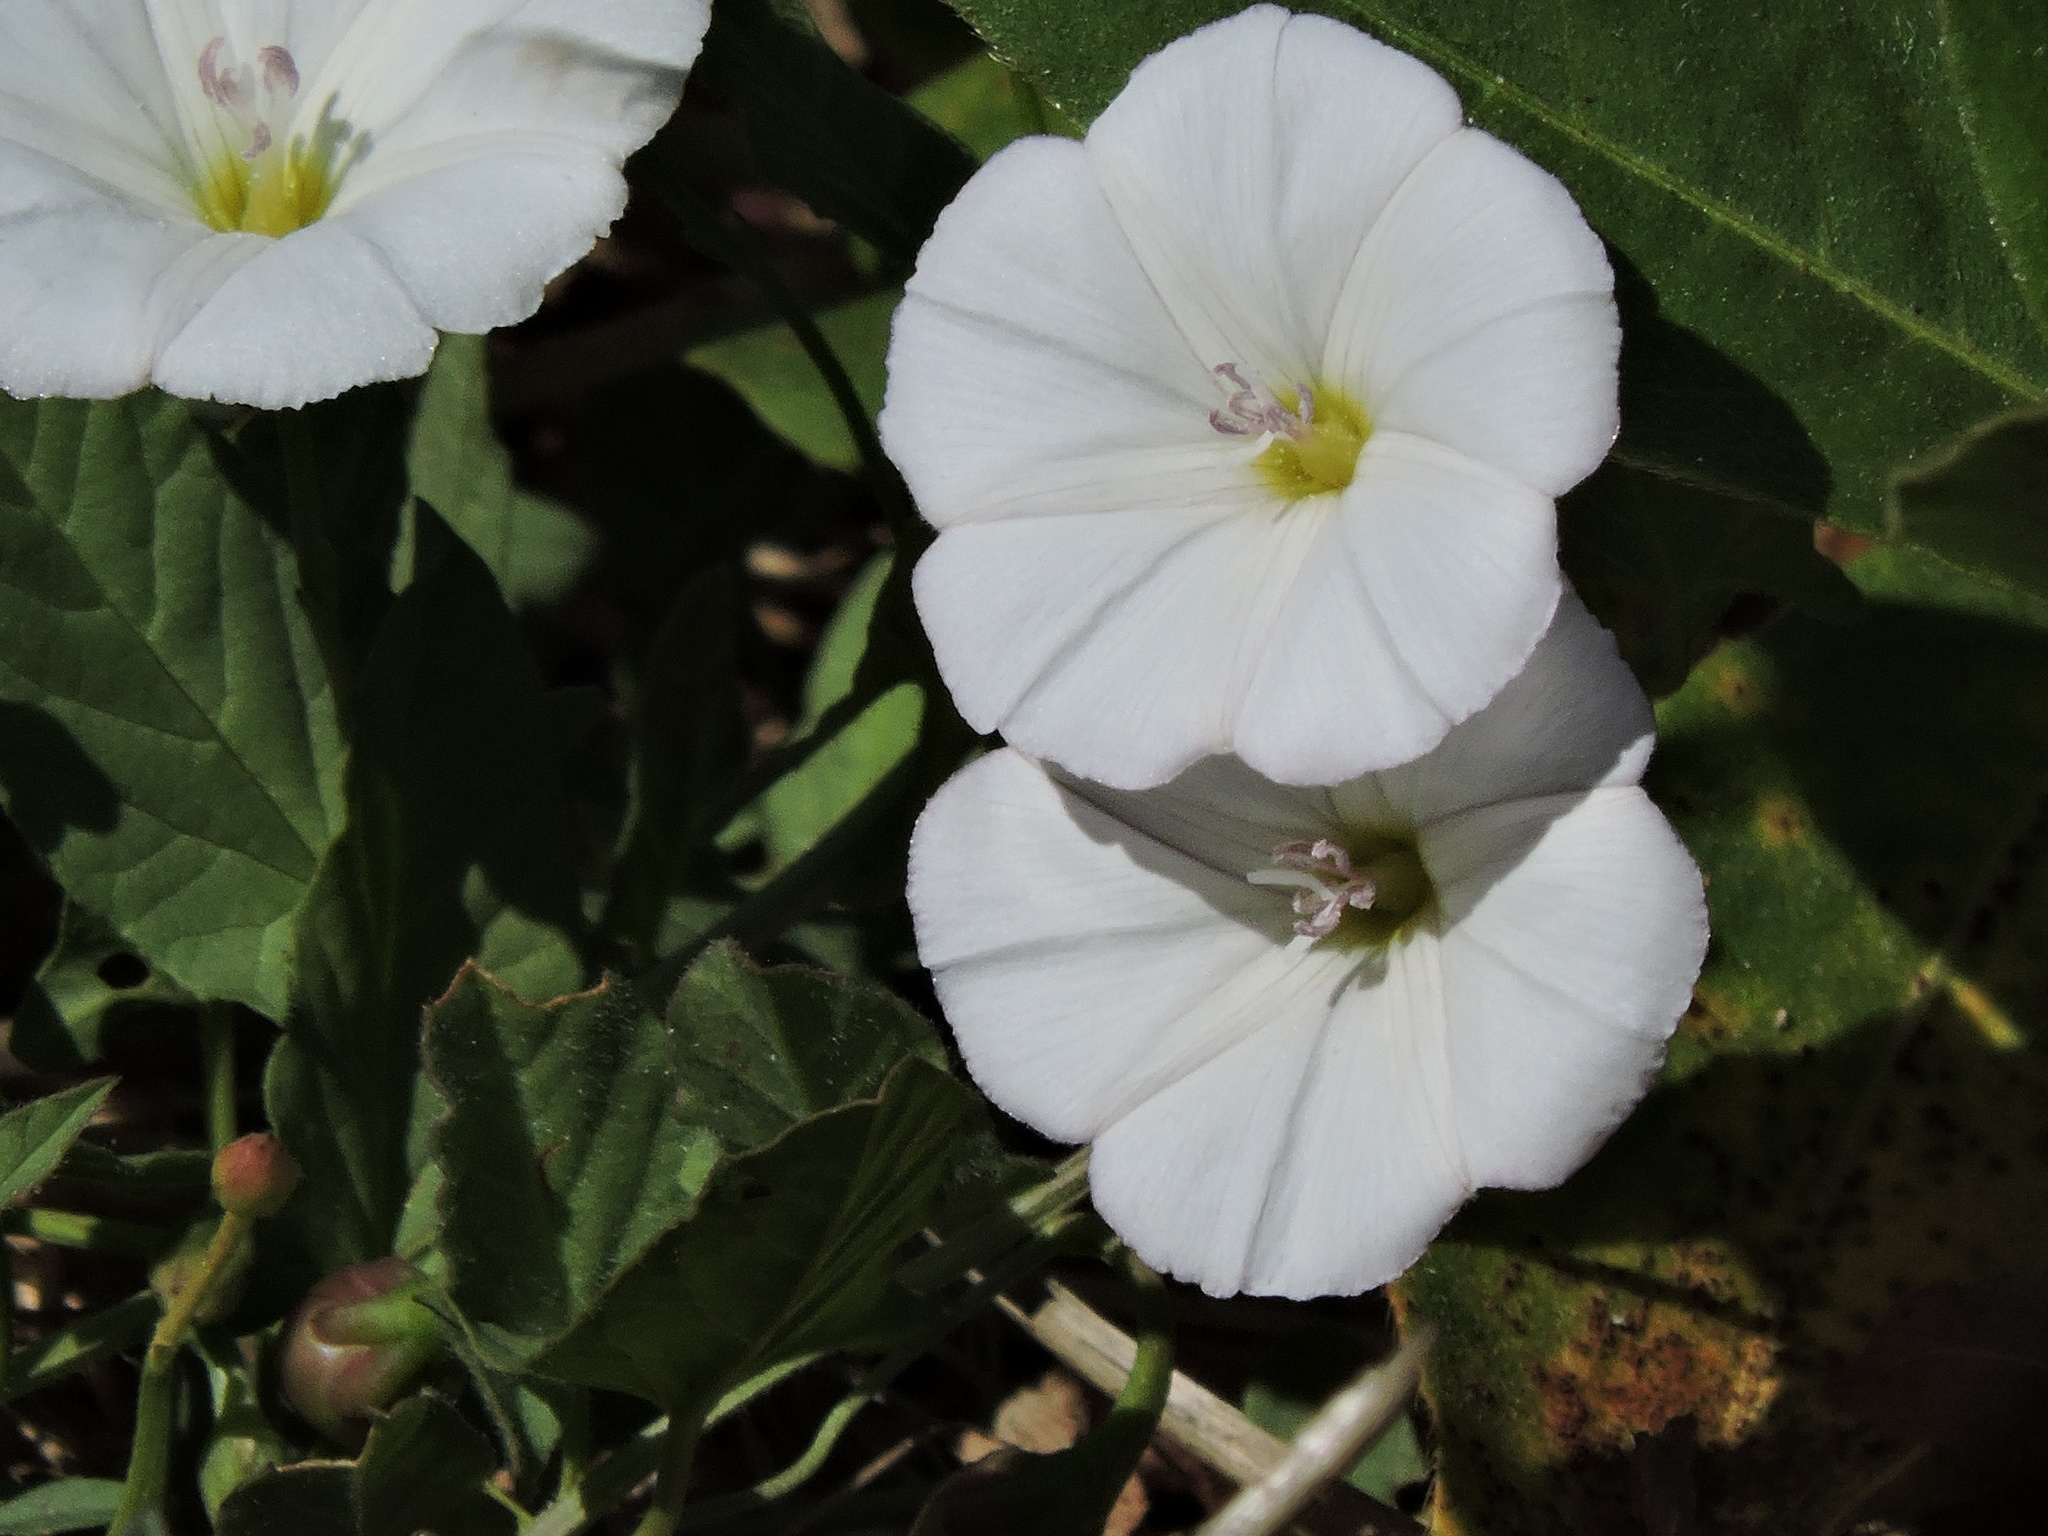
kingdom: Plantae
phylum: Tracheophyta
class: Magnoliopsida
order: Solanales
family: Convolvulaceae
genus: Convolvulus
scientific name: Convolvulus arvensis
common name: Field bindweed
